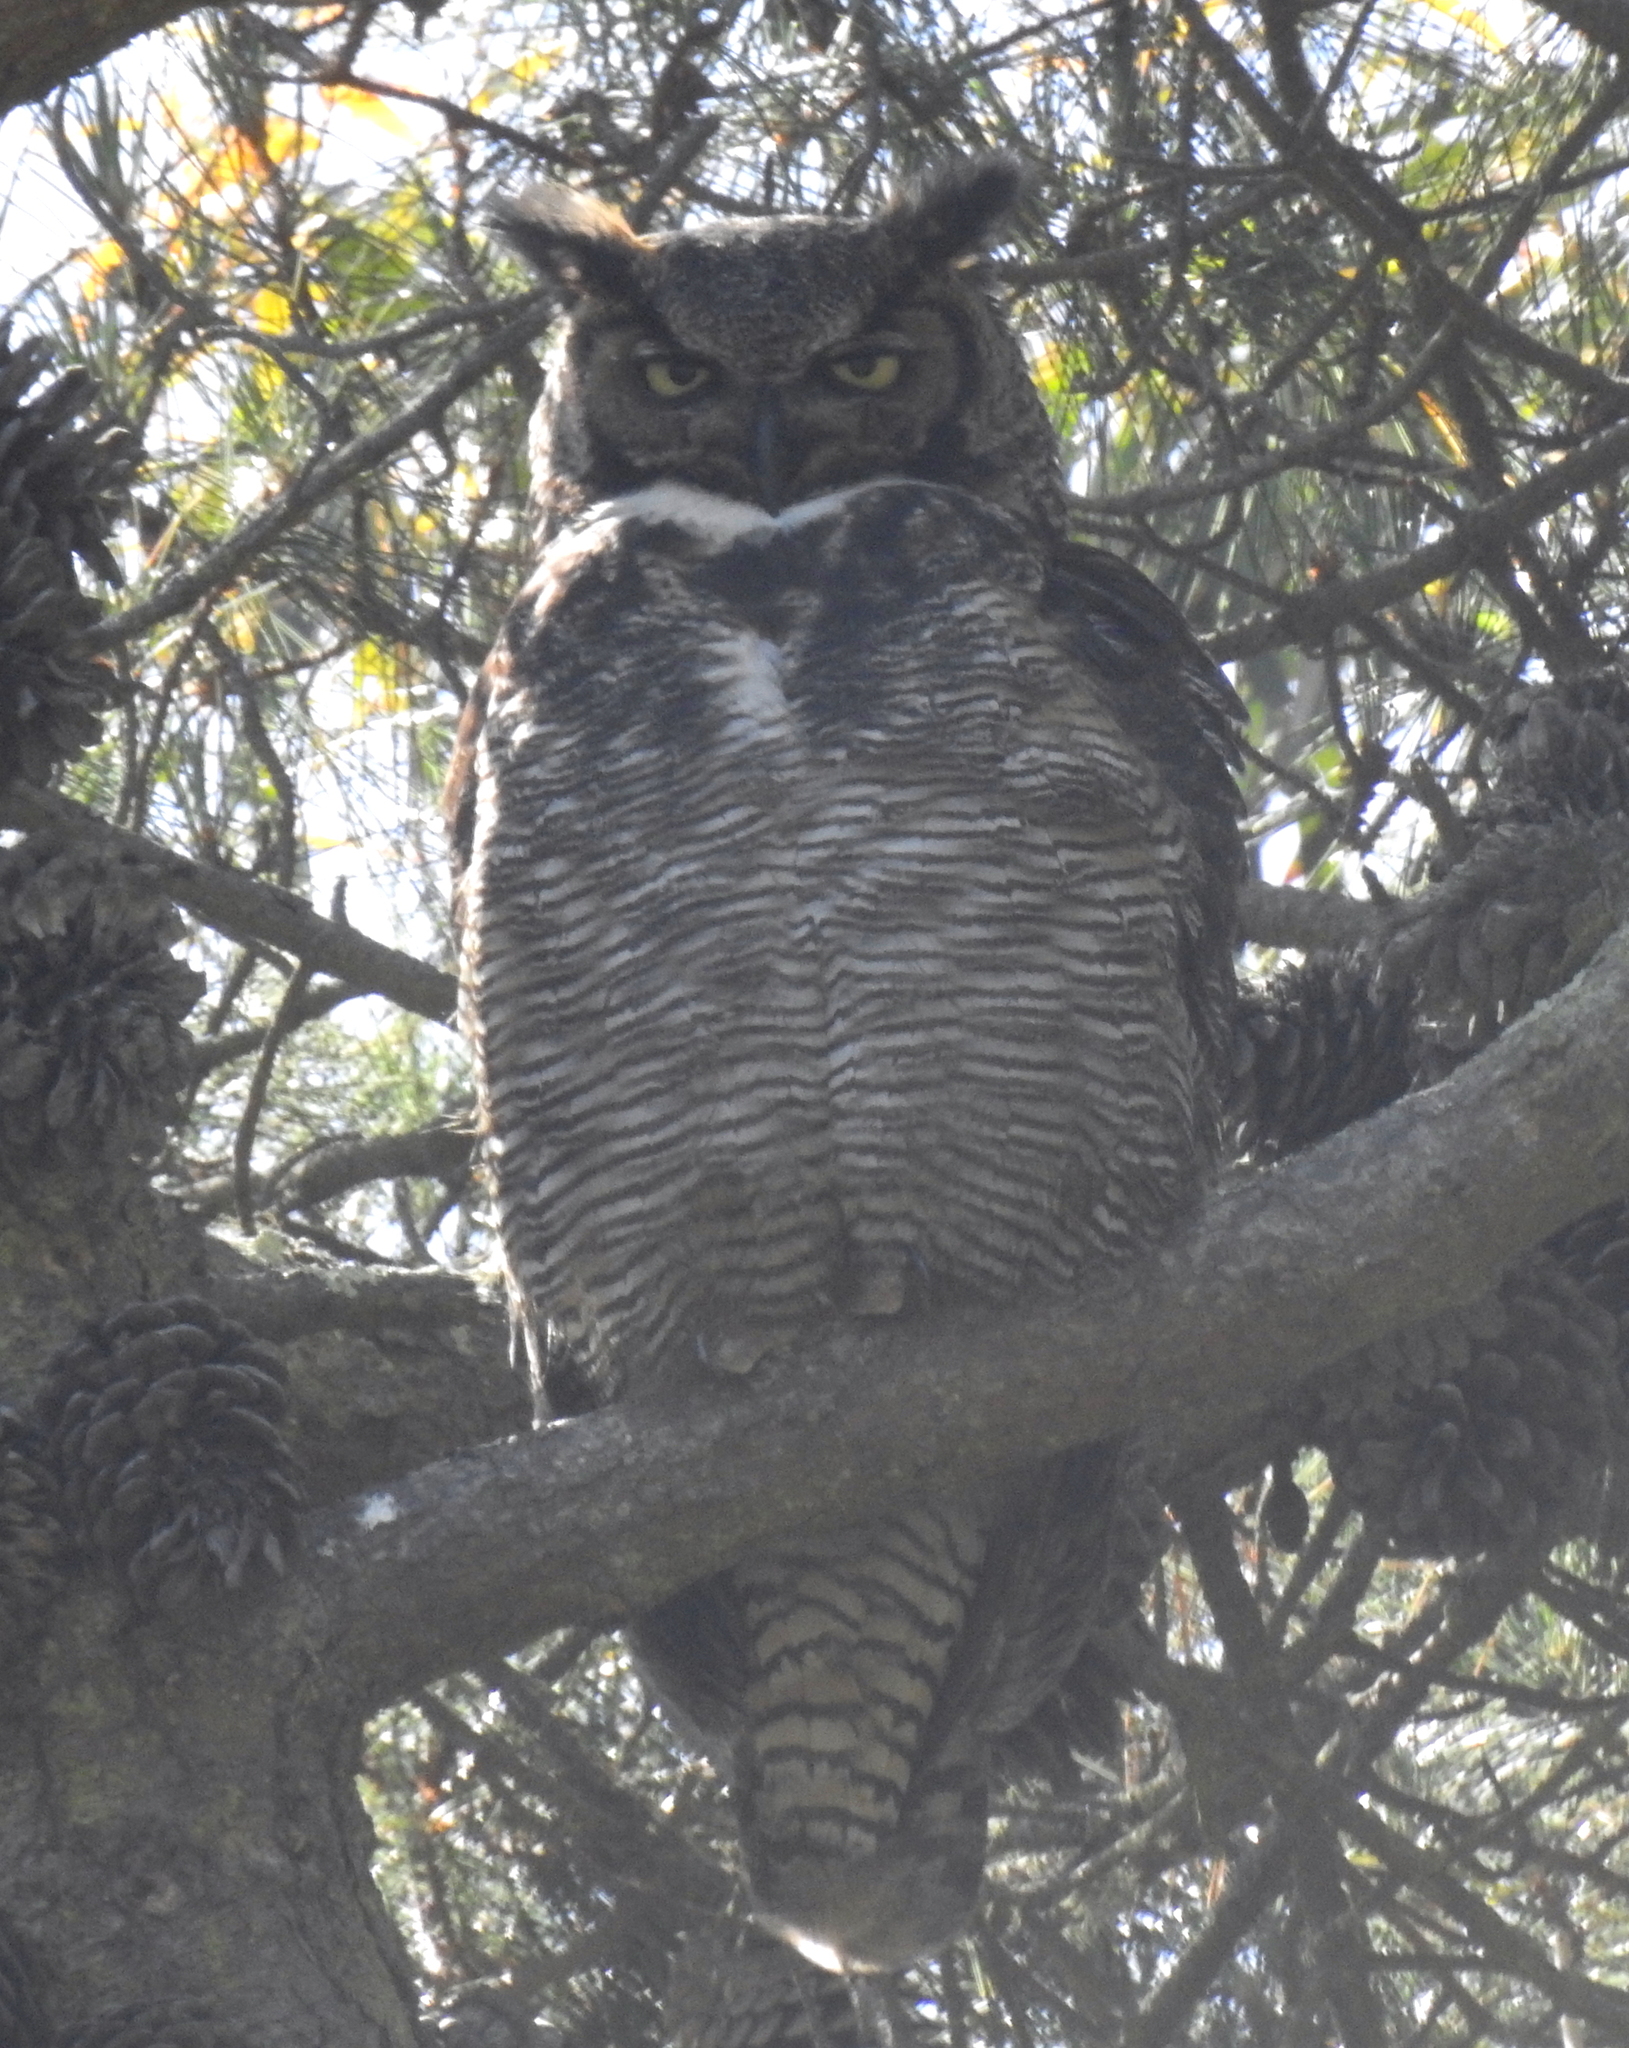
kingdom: Animalia
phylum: Chordata
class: Aves
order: Strigiformes
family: Strigidae
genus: Bubo
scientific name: Bubo virginianus
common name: Great horned owl
